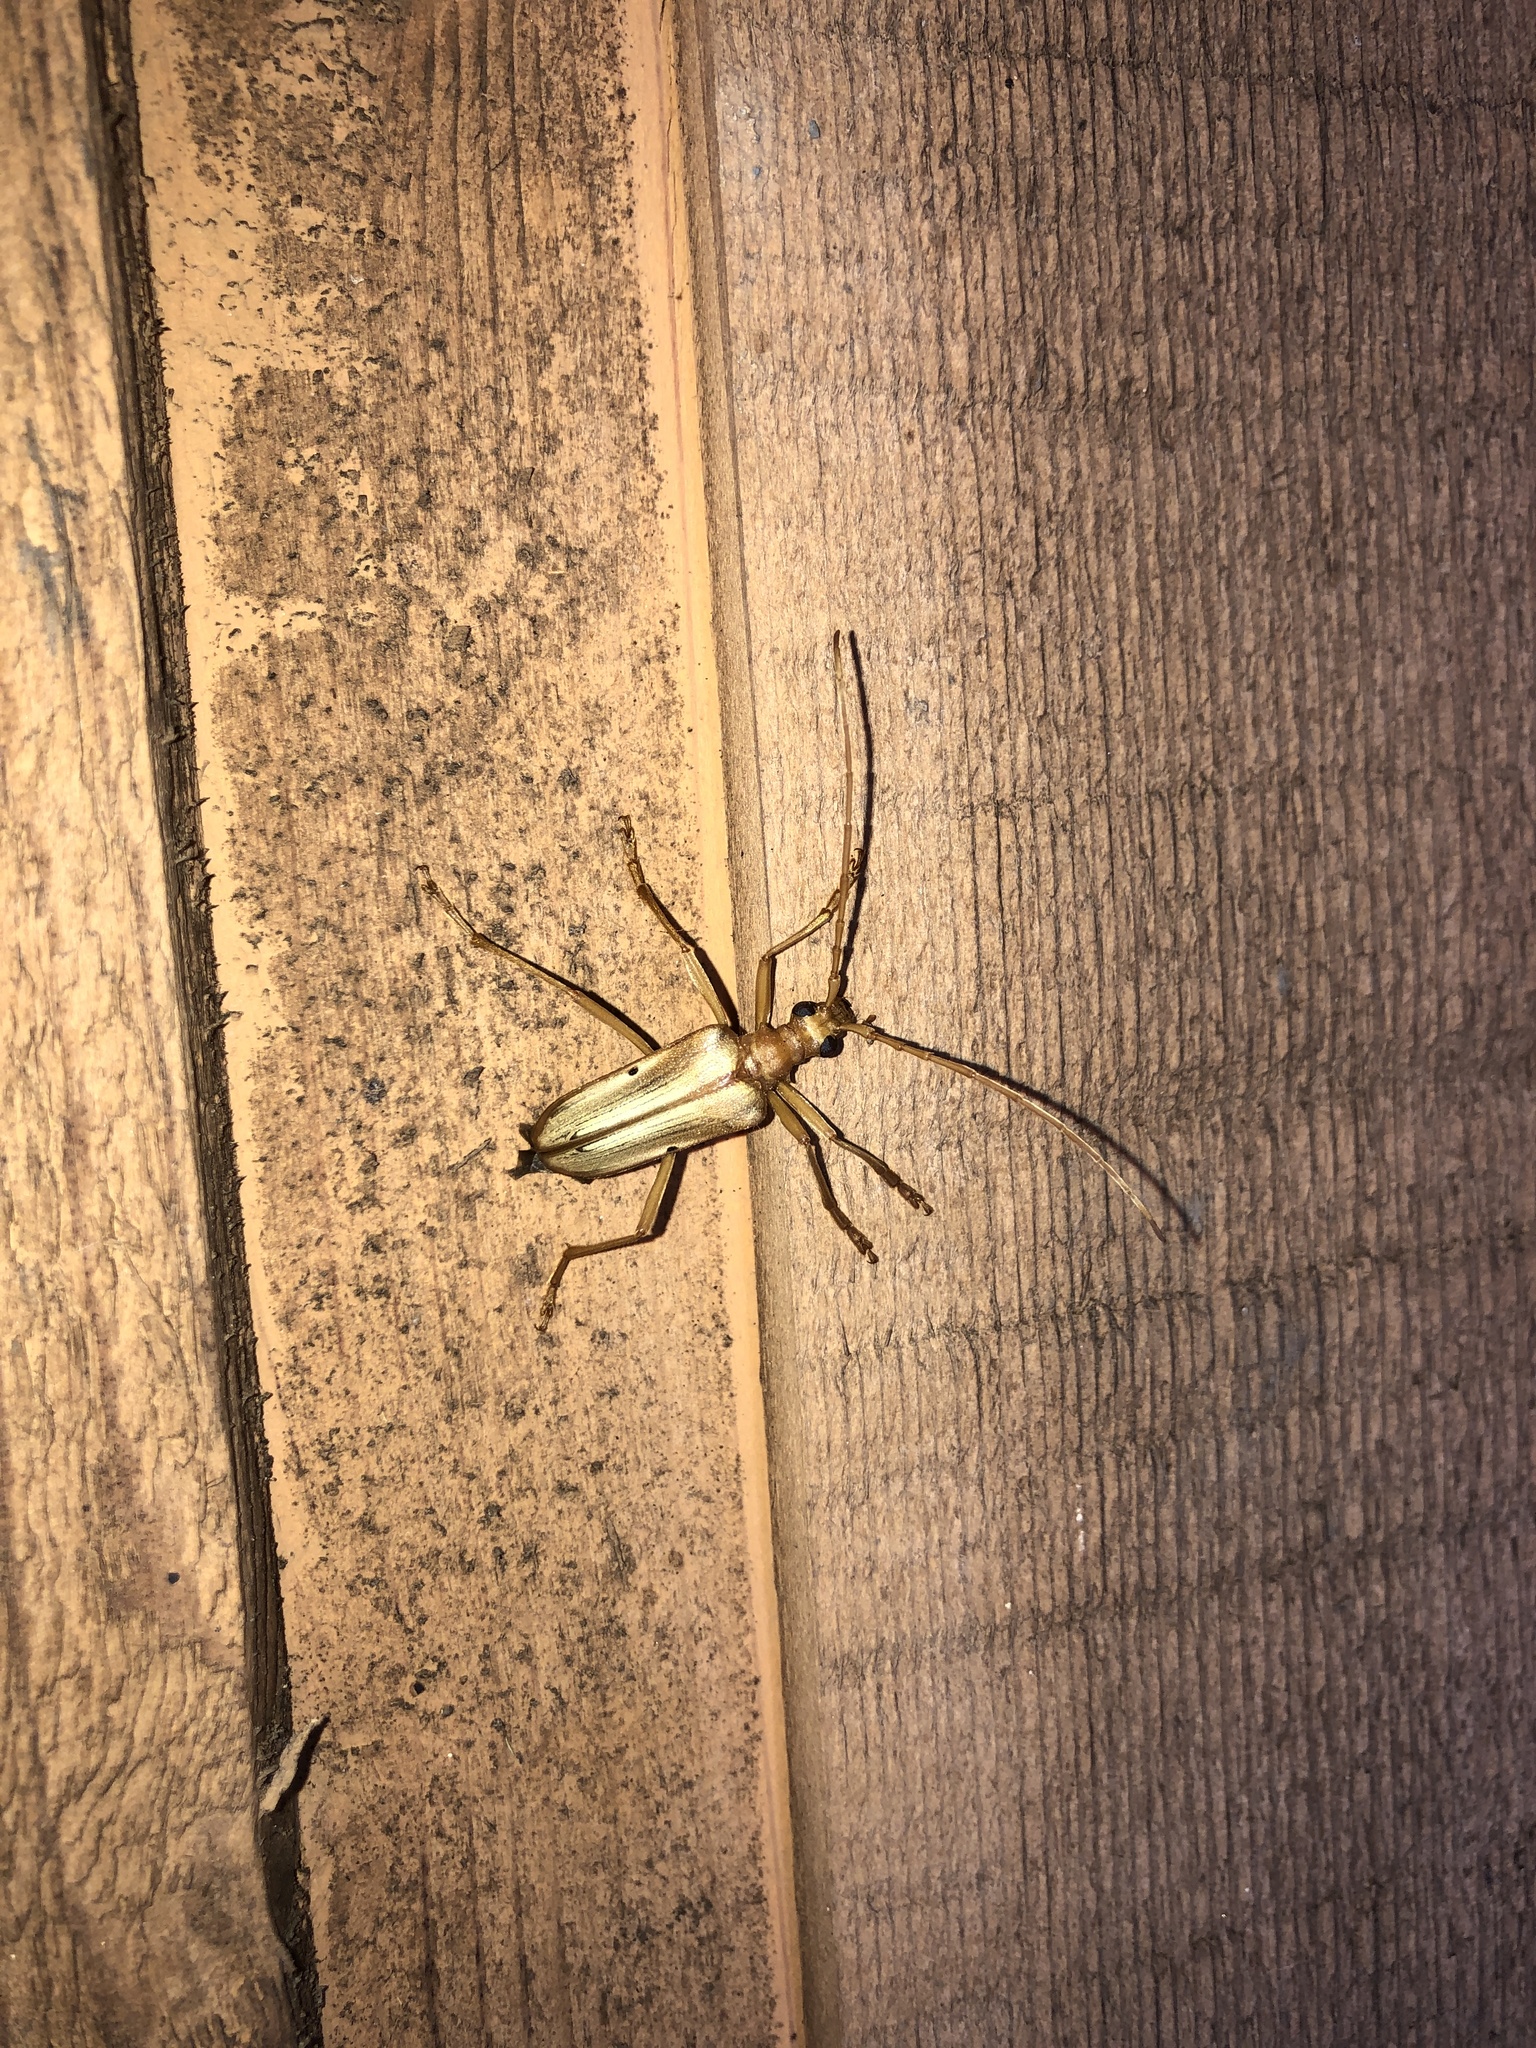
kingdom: Animalia
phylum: Arthropoda
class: Insecta
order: Coleoptera
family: Cerambycidae
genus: Centrodera
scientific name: Centrodera spurca
